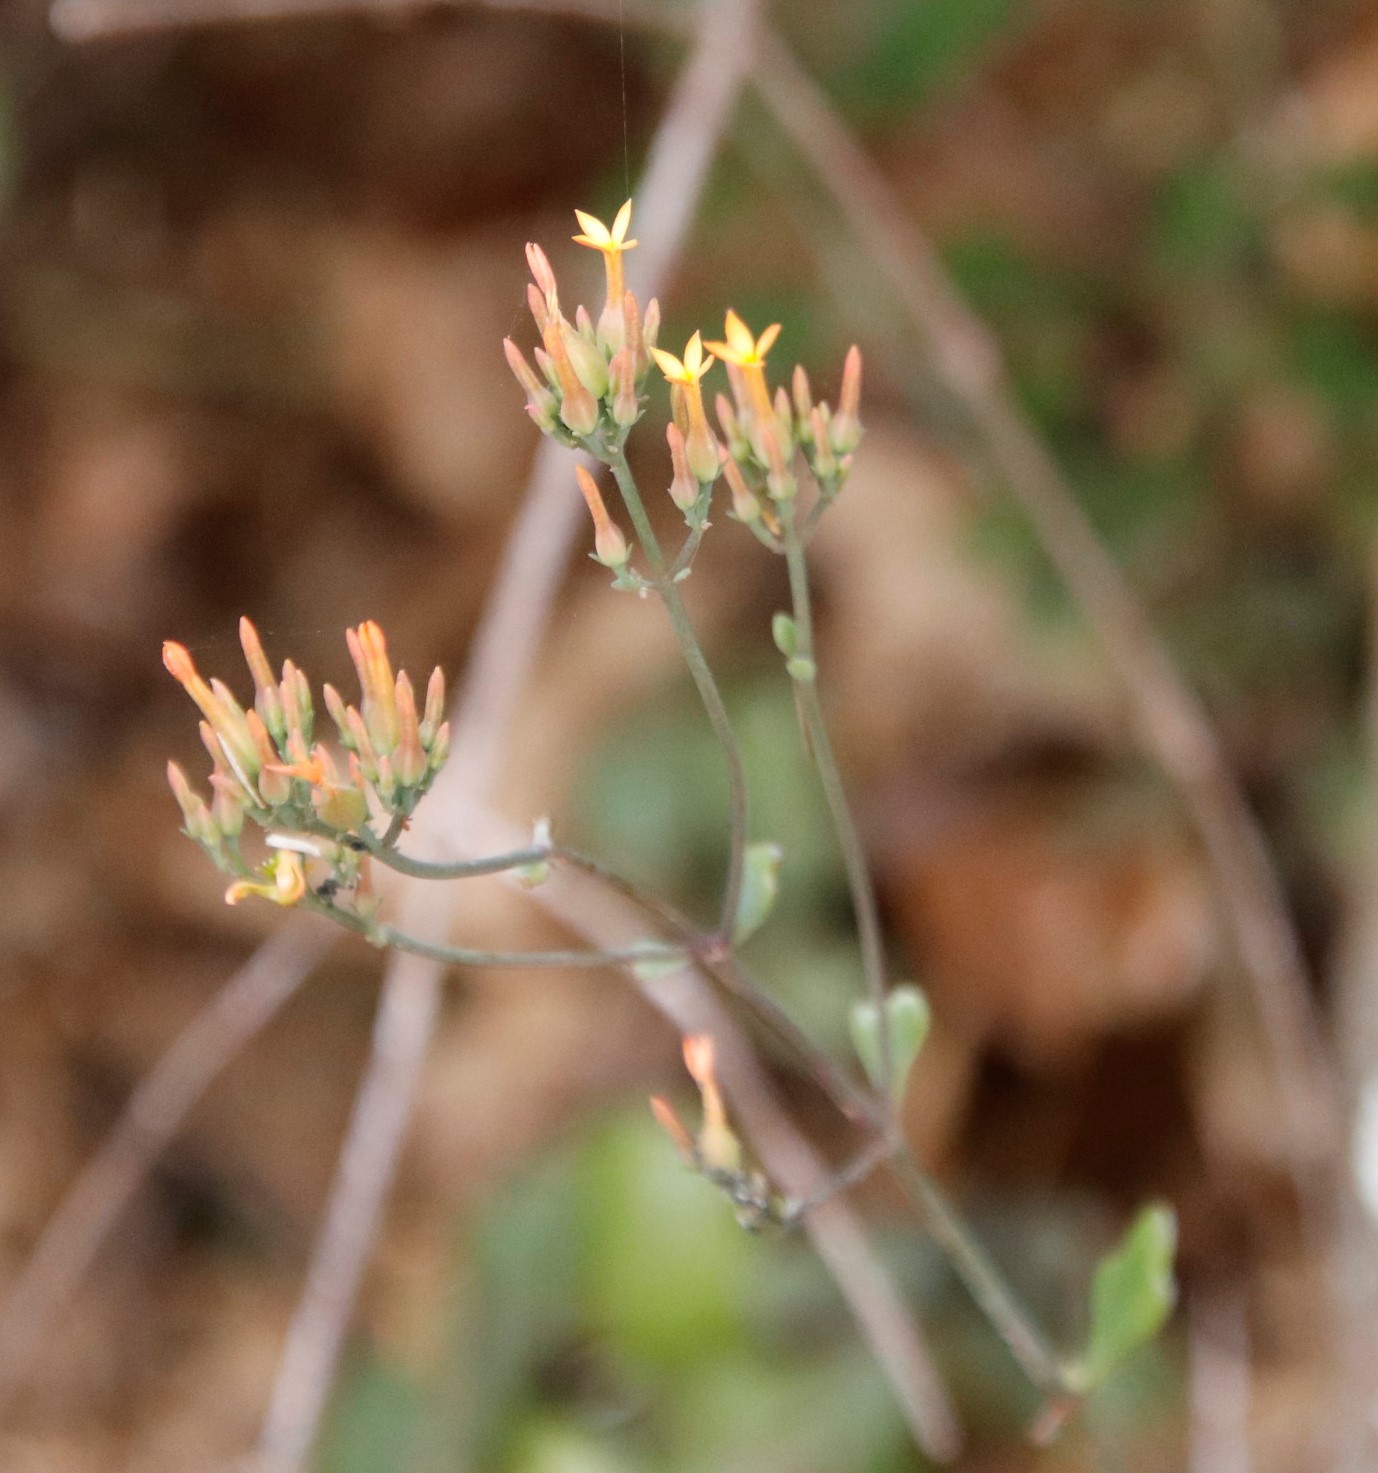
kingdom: Plantae
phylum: Tracheophyta
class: Magnoliopsida
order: Saxifragales
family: Crassulaceae
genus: Kalanchoe
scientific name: Kalanchoe rotundifolia
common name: Common kalanchoe
